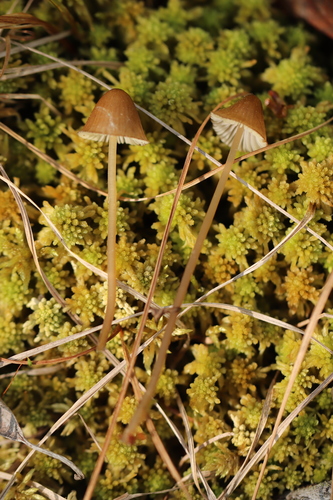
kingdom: Fungi
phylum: Basidiomycota
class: Agaricomycetes
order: Agaricales
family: Mycenaceae
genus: Mycena
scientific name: Mycena silvae-nigrae
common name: Pine bonnet
